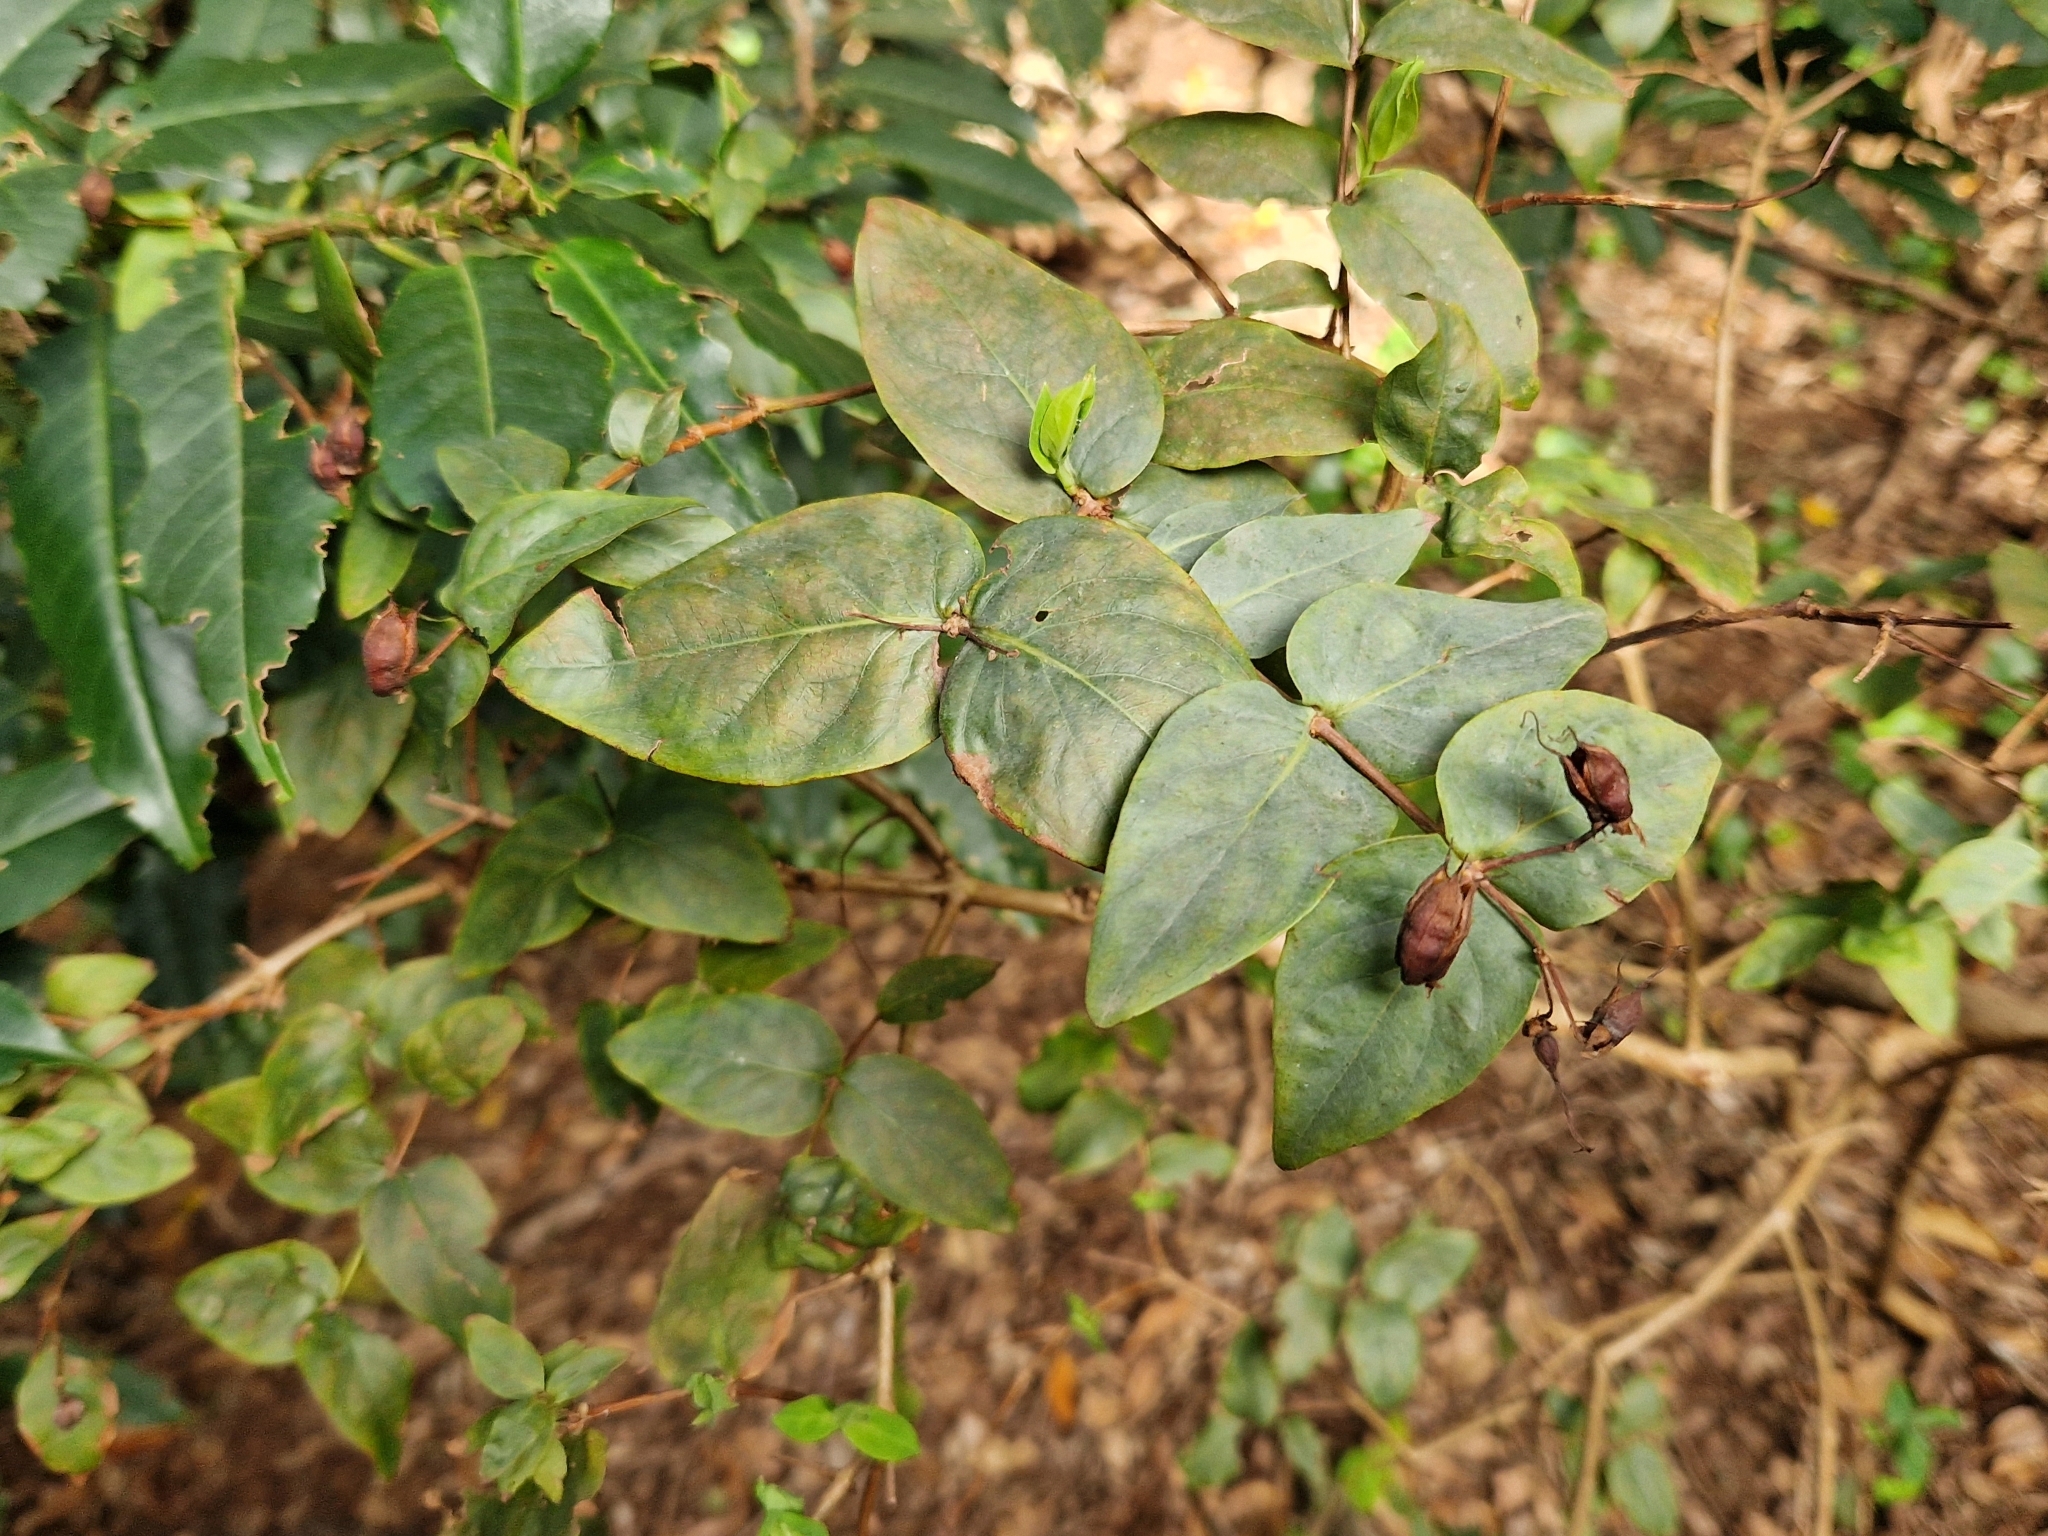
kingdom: Plantae
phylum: Tracheophyta
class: Magnoliopsida
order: Malpighiales
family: Hypericaceae
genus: Hypericum
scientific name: Hypericum grandifolium
